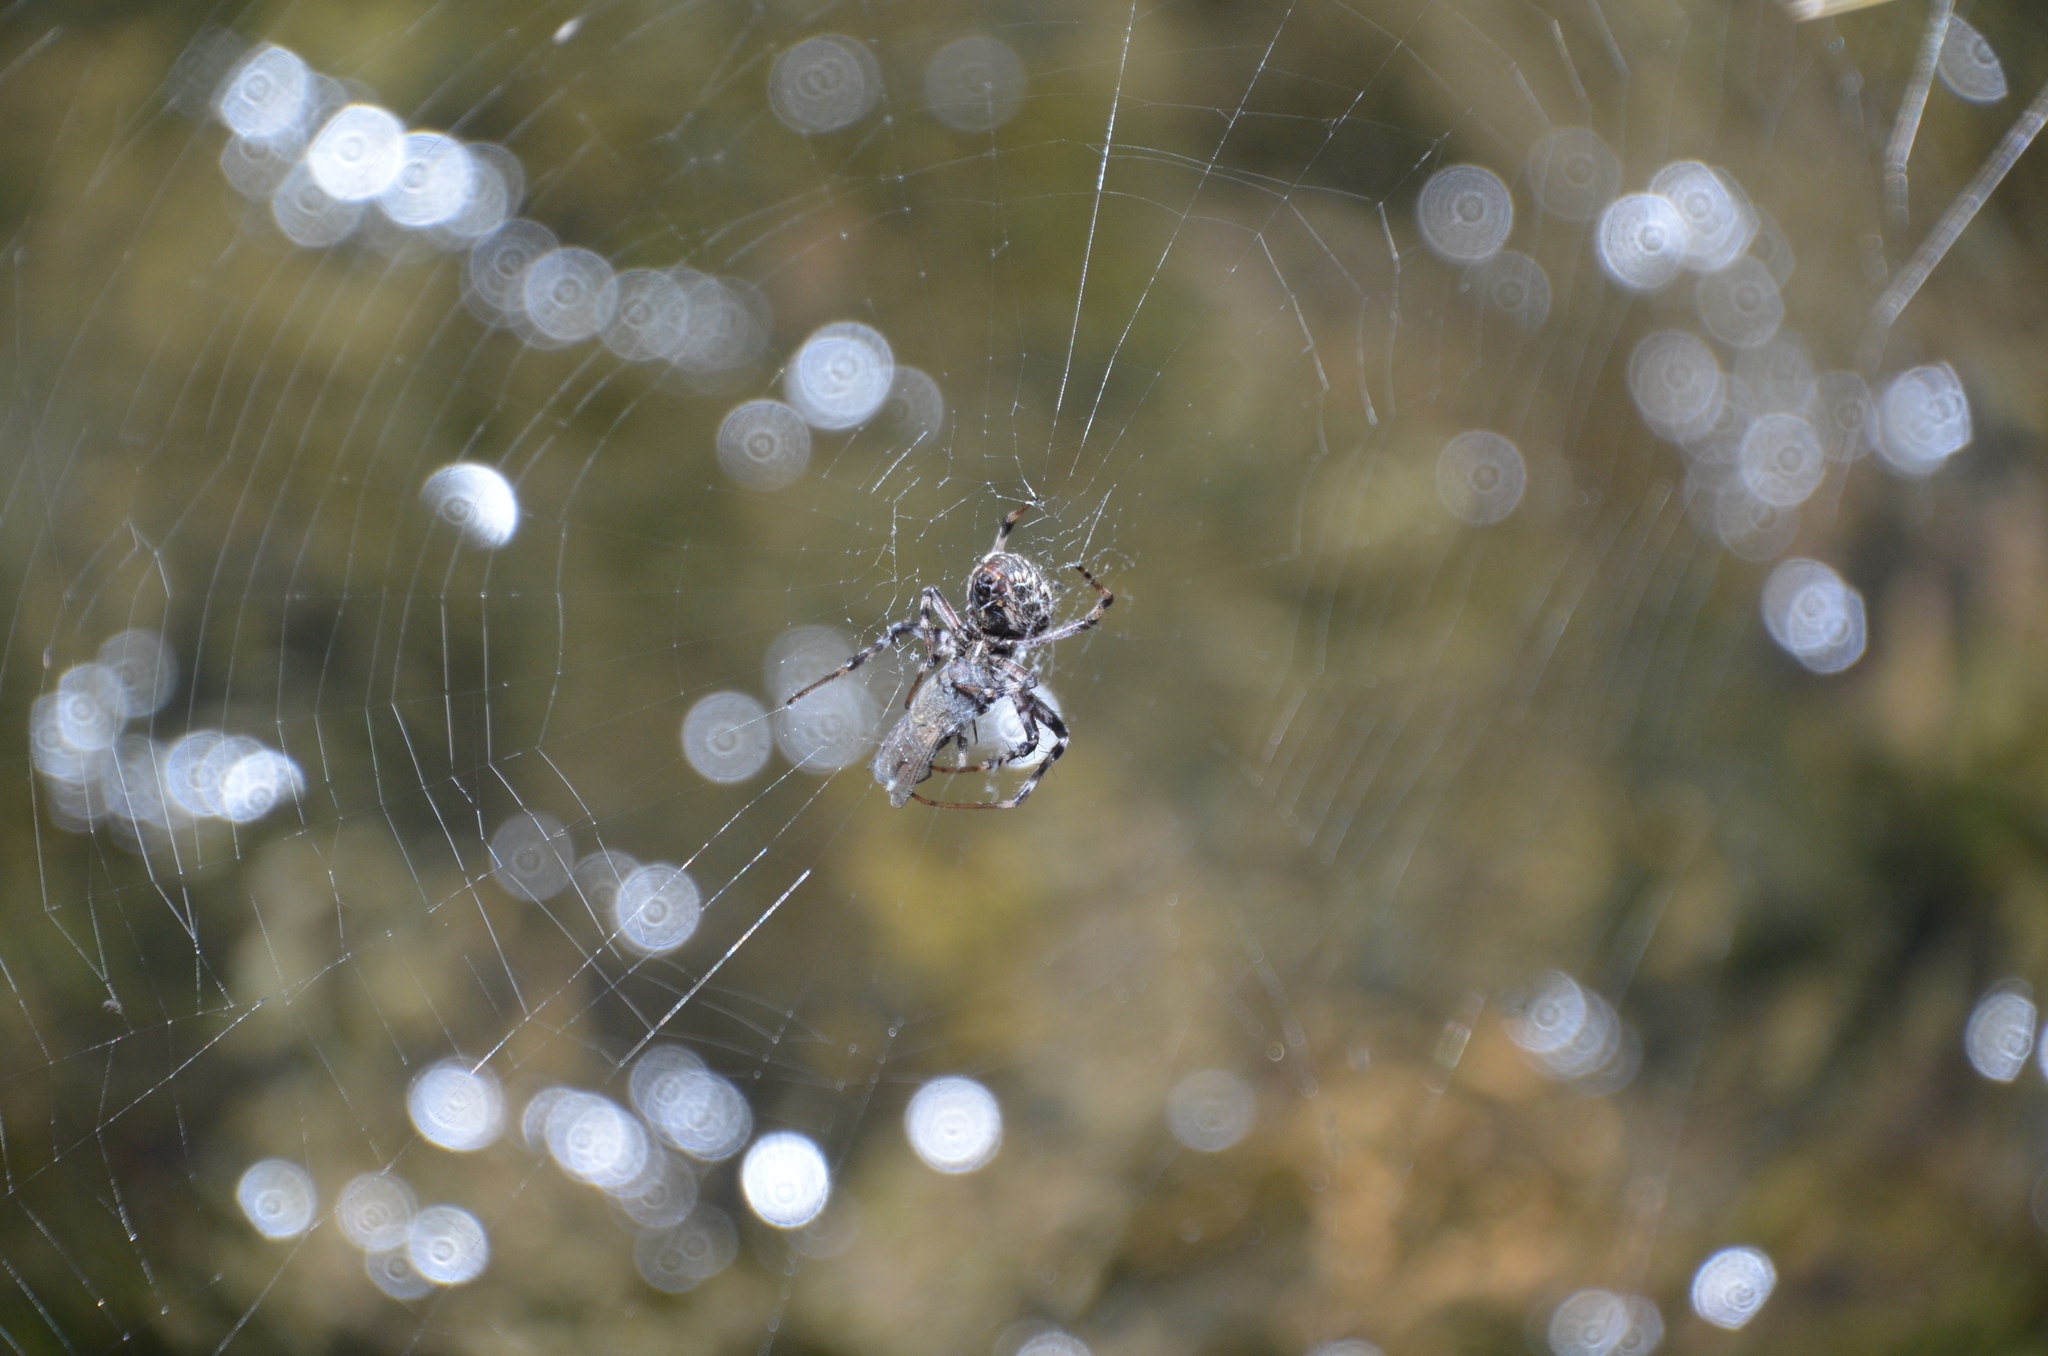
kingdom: Animalia
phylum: Arthropoda
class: Arachnida
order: Araneae
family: Araneidae
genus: Metepeira
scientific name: Metepeira
